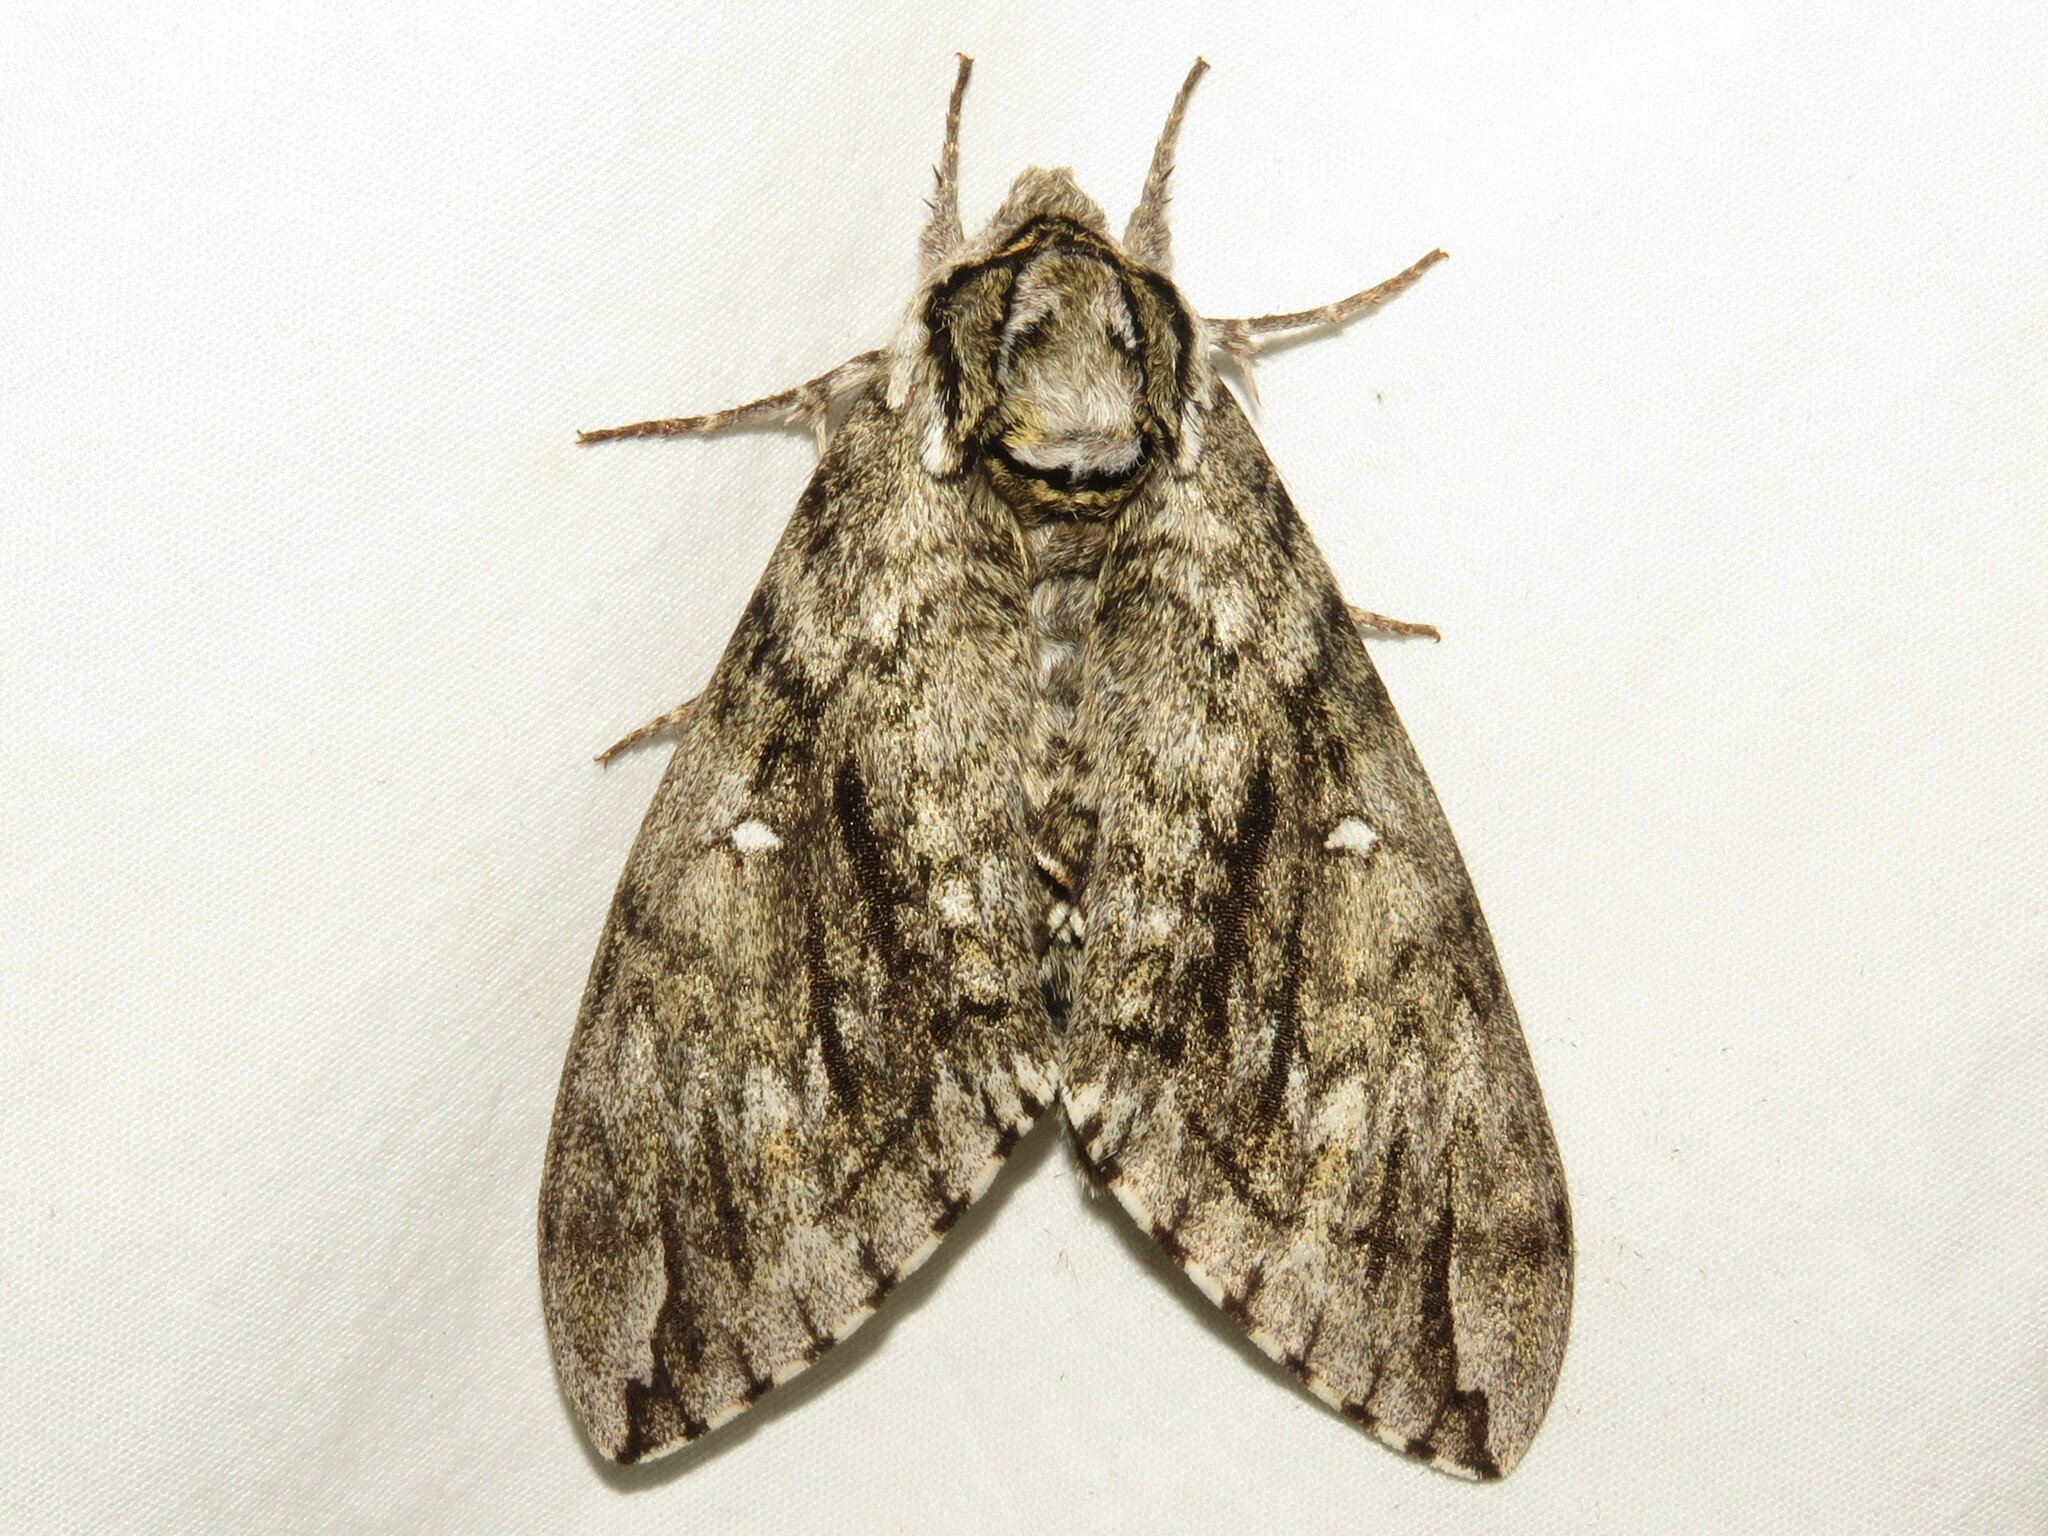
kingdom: Animalia
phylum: Arthropoda
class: Insecta
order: Lepidoptera
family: Sphingidae
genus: Ceratomia
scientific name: Ceratomia undulosa
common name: Waved sphinx
